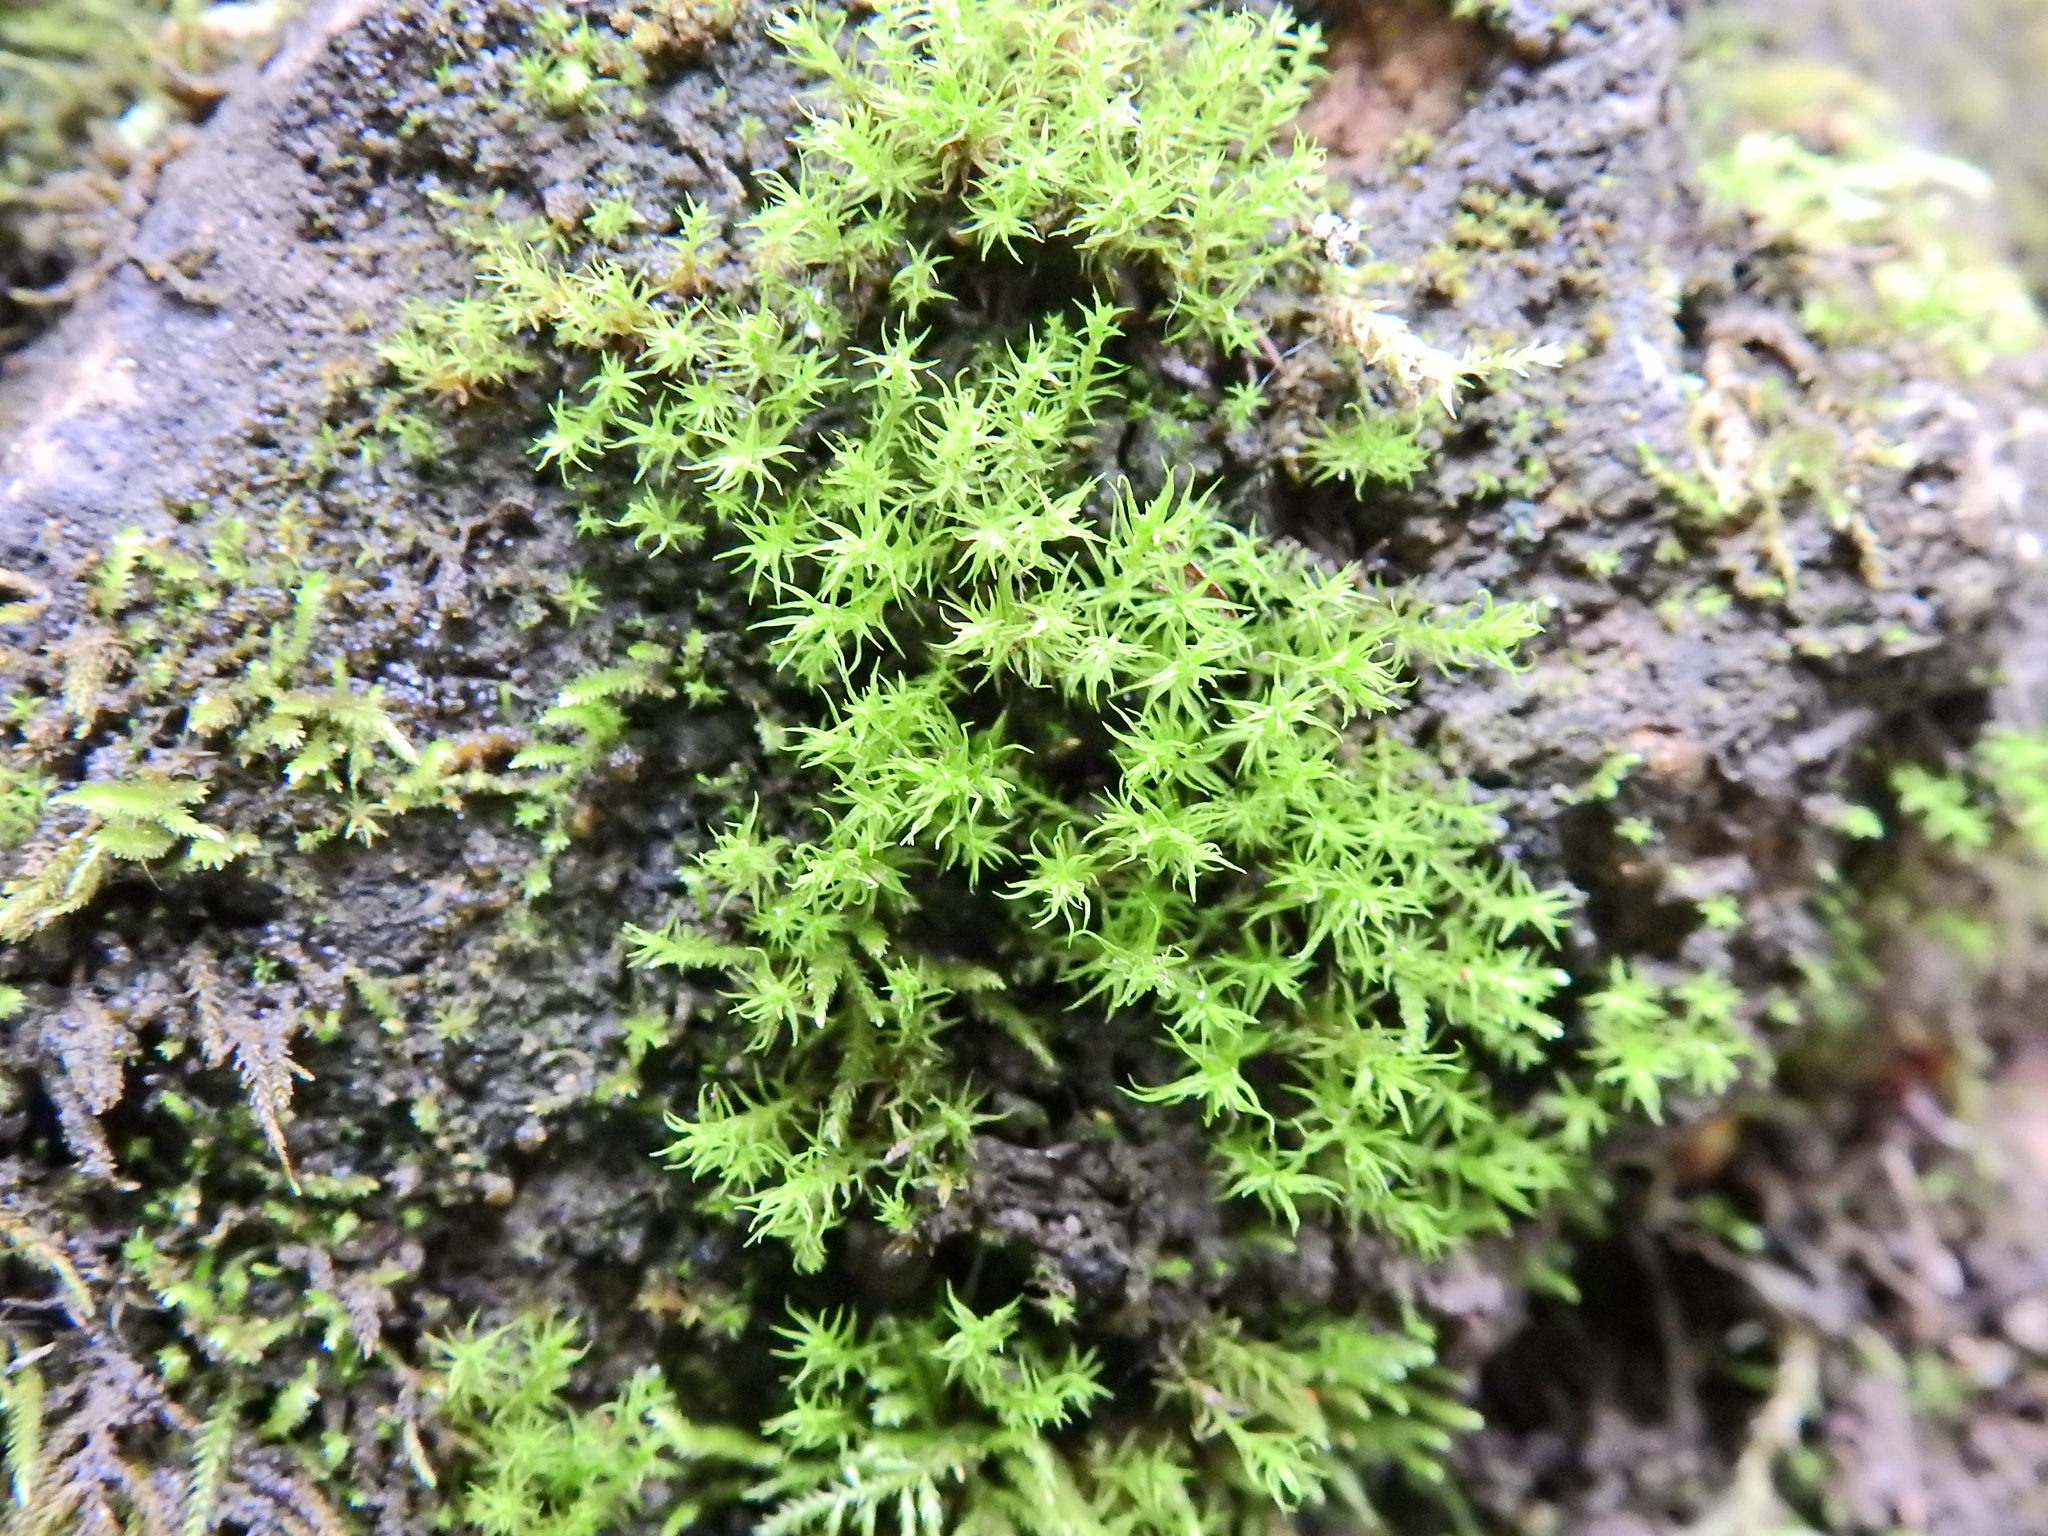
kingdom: Plantae
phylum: Bryophyta
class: Bryopsida
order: Dicranales
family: Aongstroemiaceae
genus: Dichodontium
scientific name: Dichodontium pellucidum
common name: Transparent fork moss
